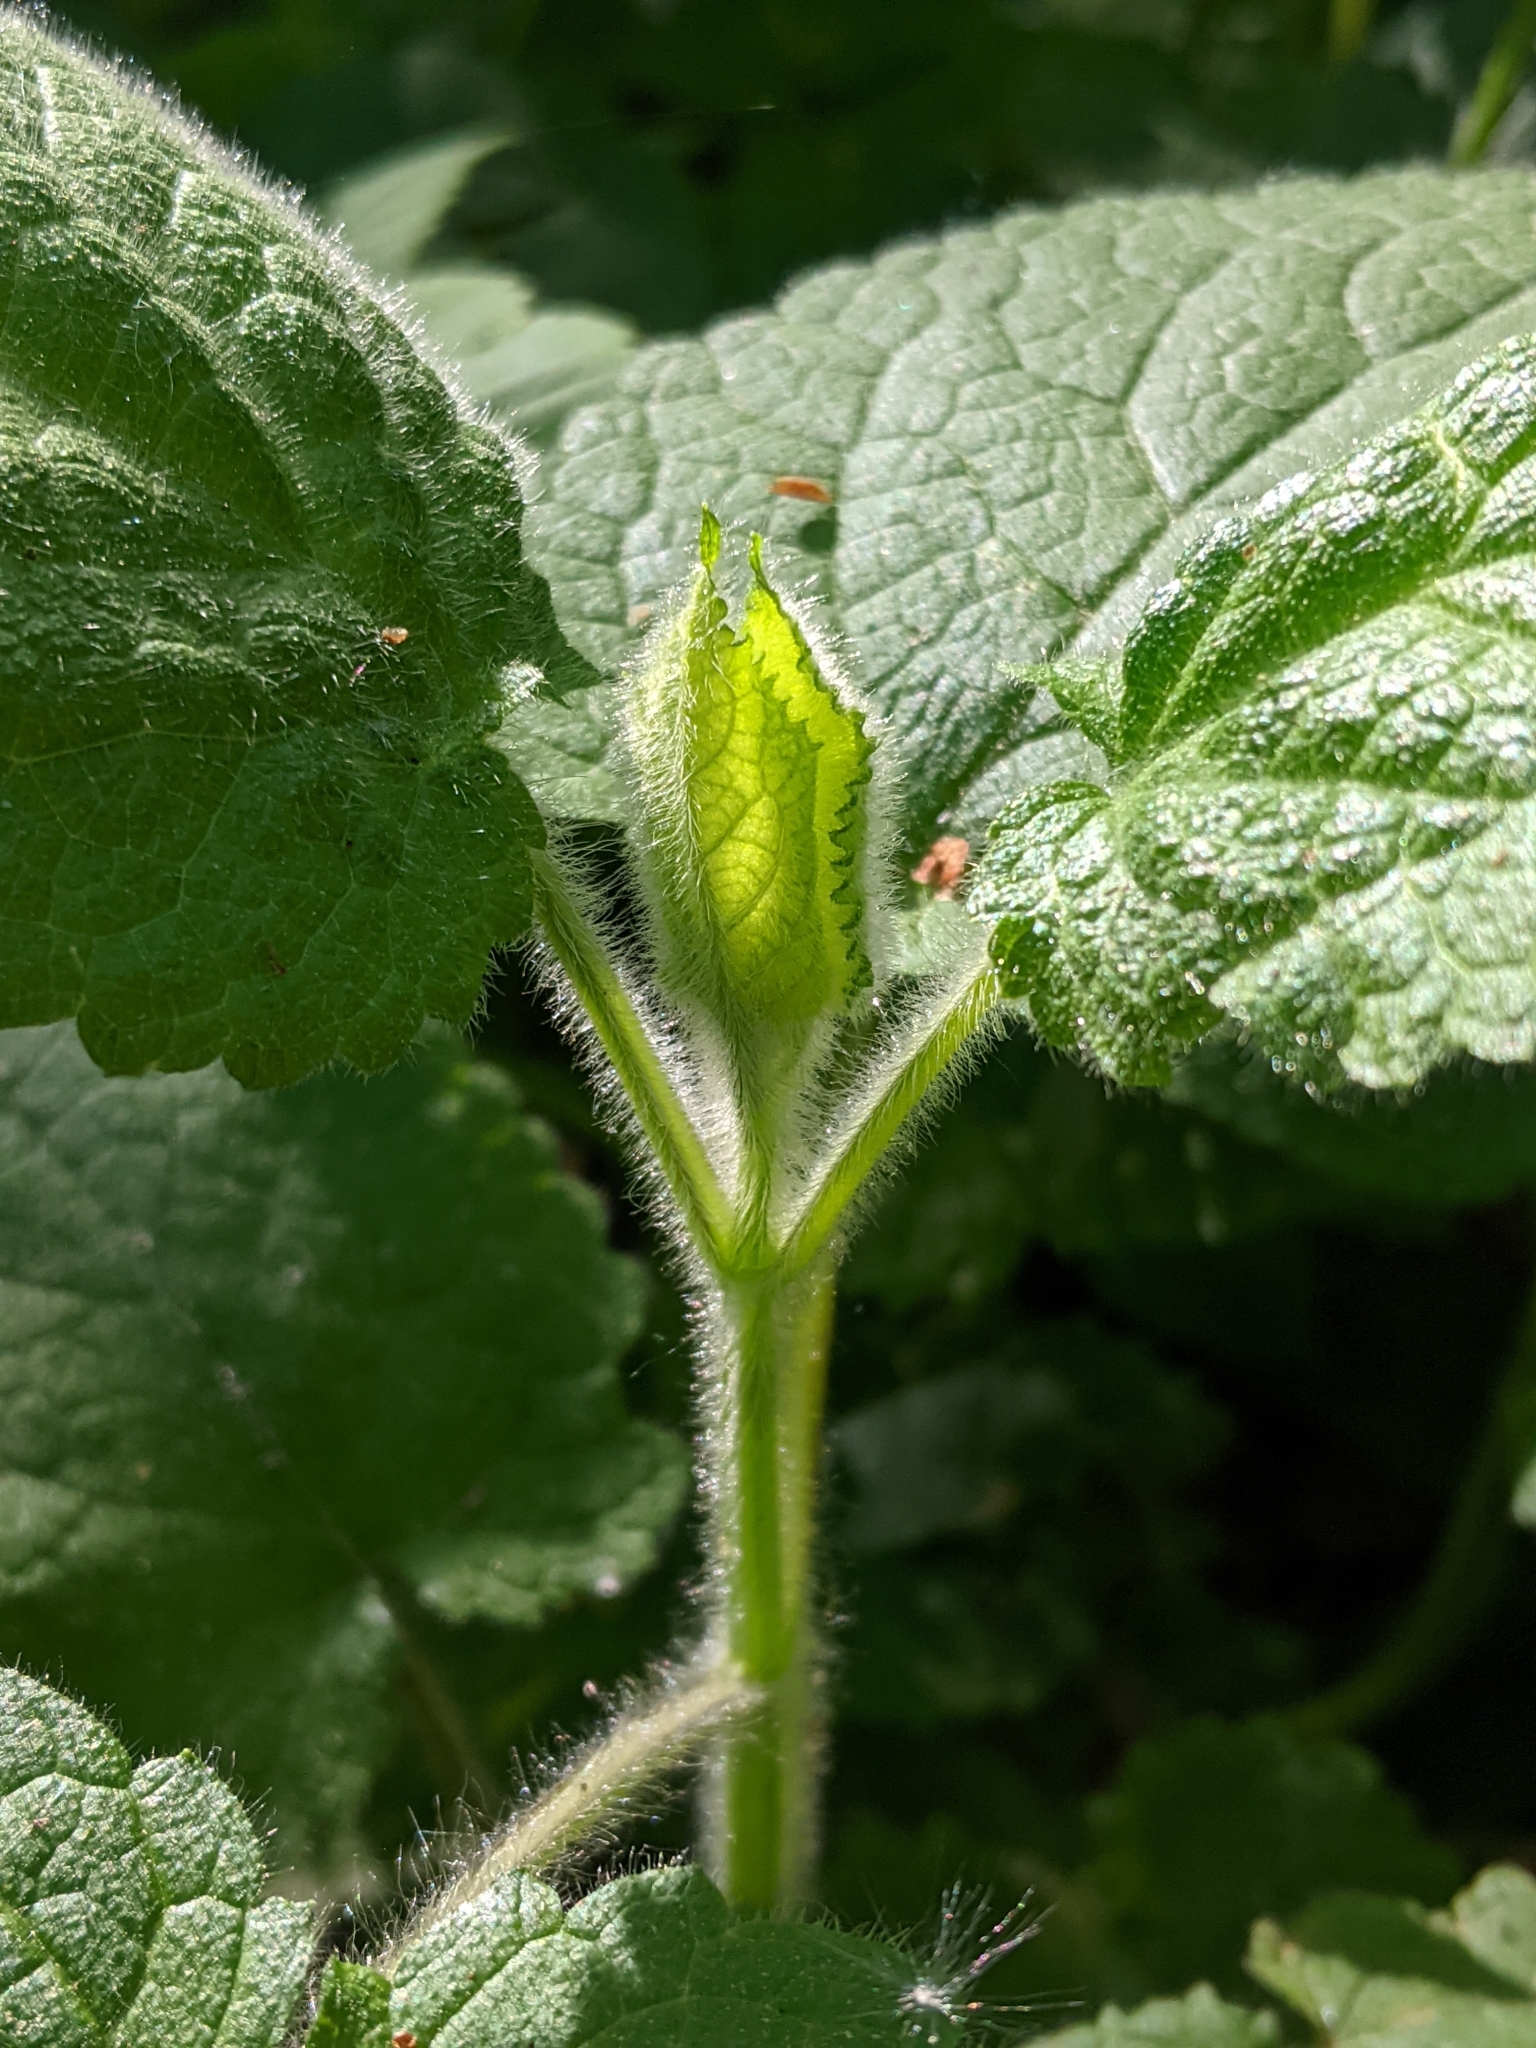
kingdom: Plantae
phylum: Tracheophyta
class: Magnoliopsida
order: Lamiales
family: Lamiaceae
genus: Stachys
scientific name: Stachys sylvatica
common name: Hedge woundwort
